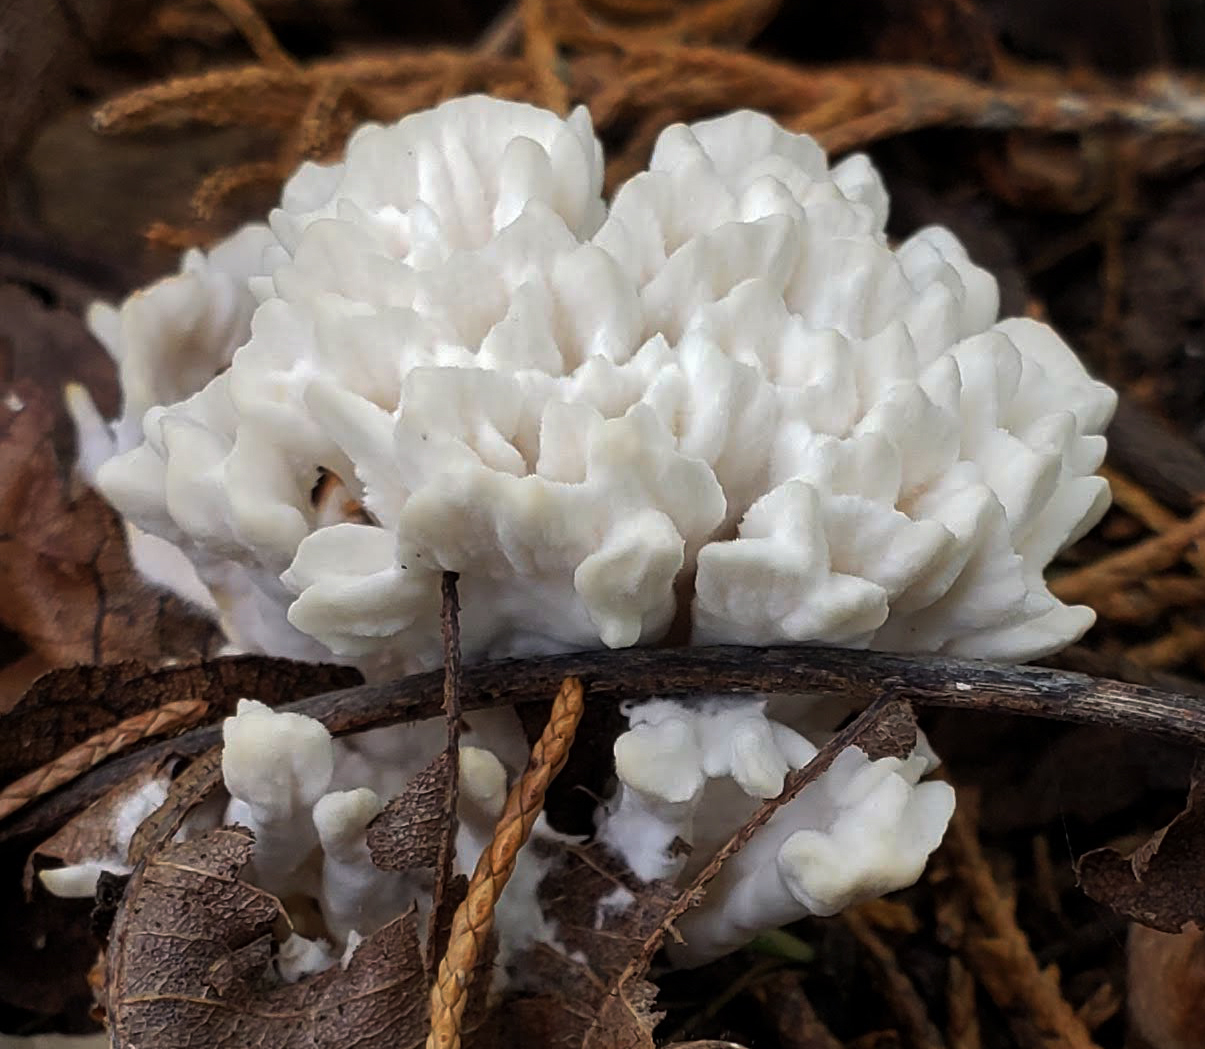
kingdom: Fungi
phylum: Basidiomycota
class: Agaricomycetes
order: Sebacinales
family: Sebacinaceae
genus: Sebacina
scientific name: Sebacina schweinitzii
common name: Jellied false coral fungus
